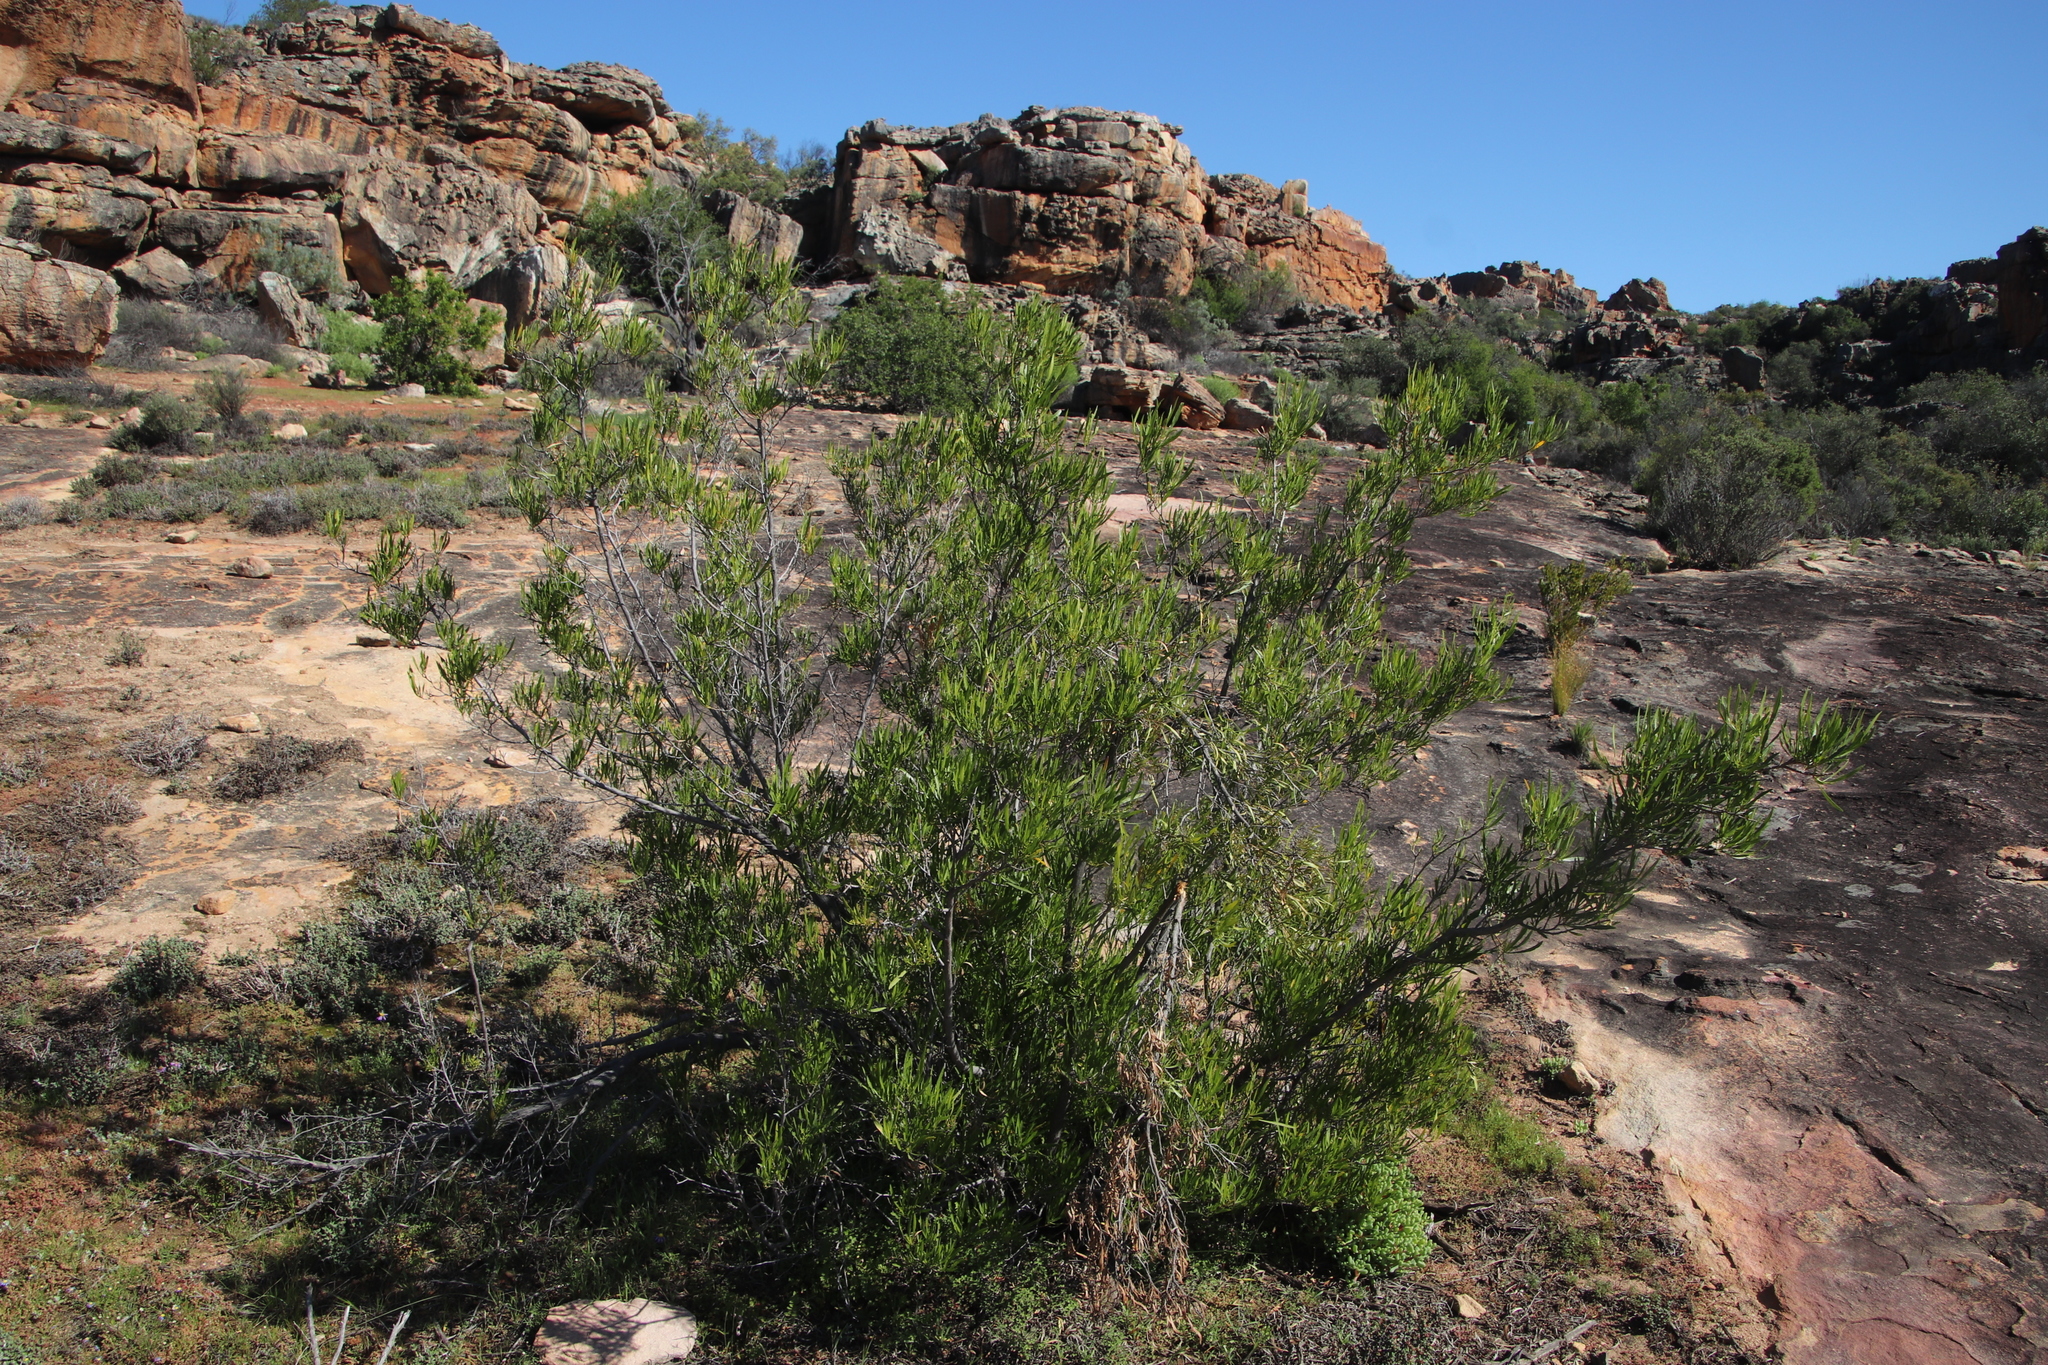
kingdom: Plantae
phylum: Tracheophyta
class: Magnoliopsida
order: Sapindales
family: Sapindaceae
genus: Dodonaea
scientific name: Dodonaea viscosa
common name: Hopbush
